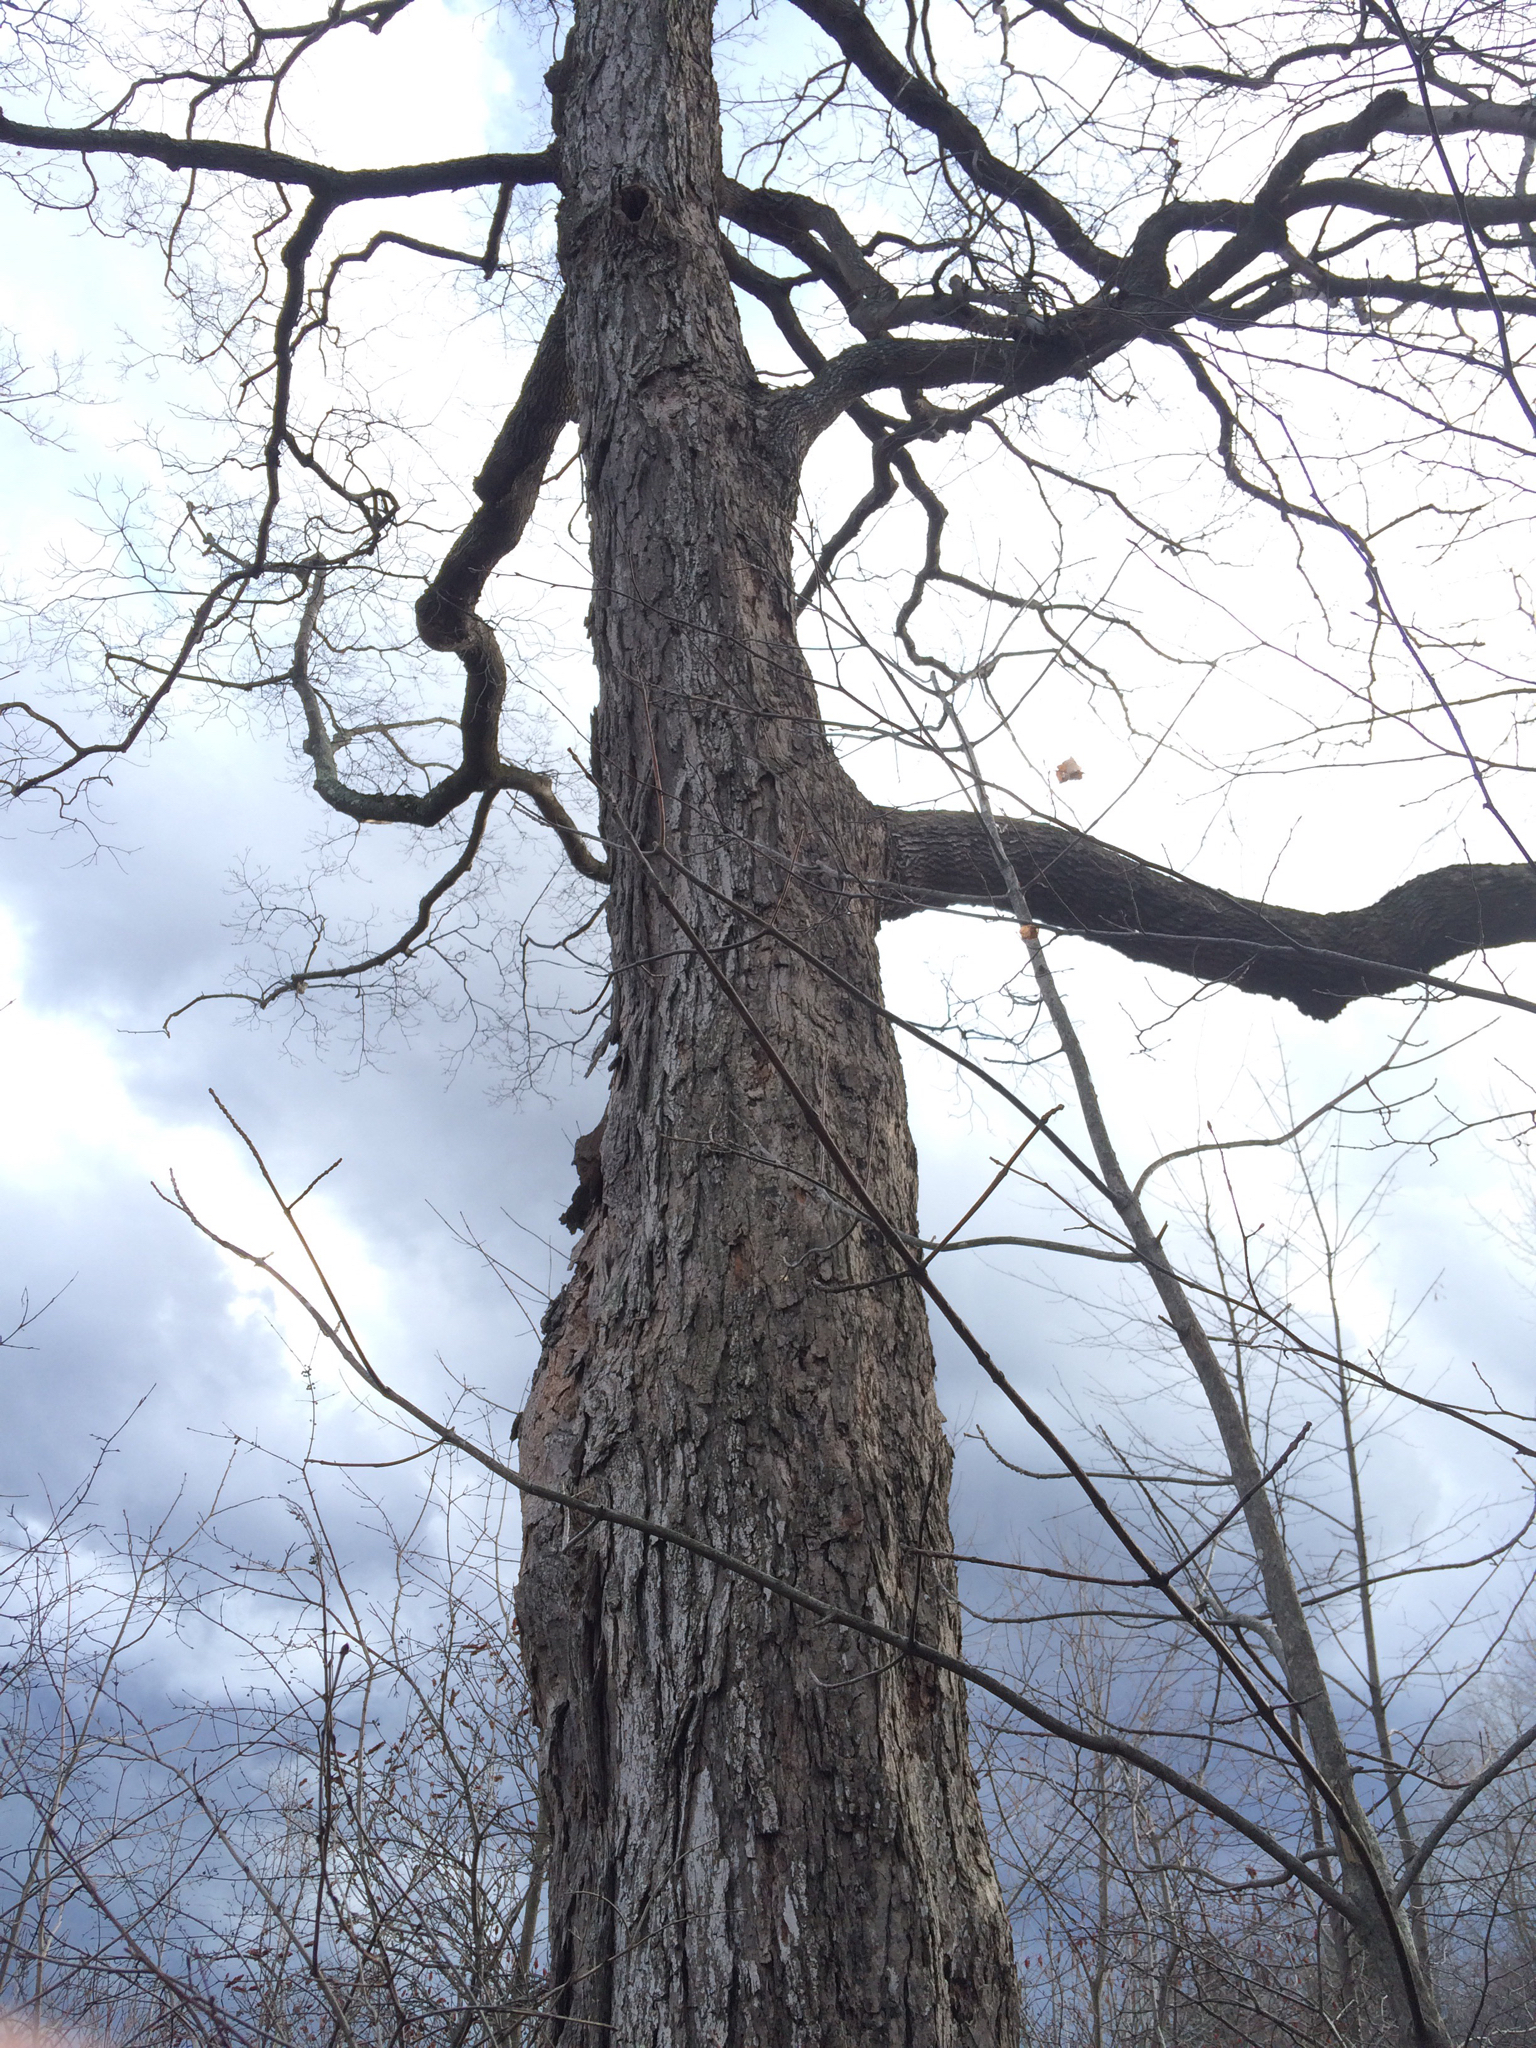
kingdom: Plantae
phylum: Tracheophyta
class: Magnoliopsida
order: Sapindales
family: Sapindaceae
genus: Acer
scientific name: Acer saccharum
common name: Sugar maple
